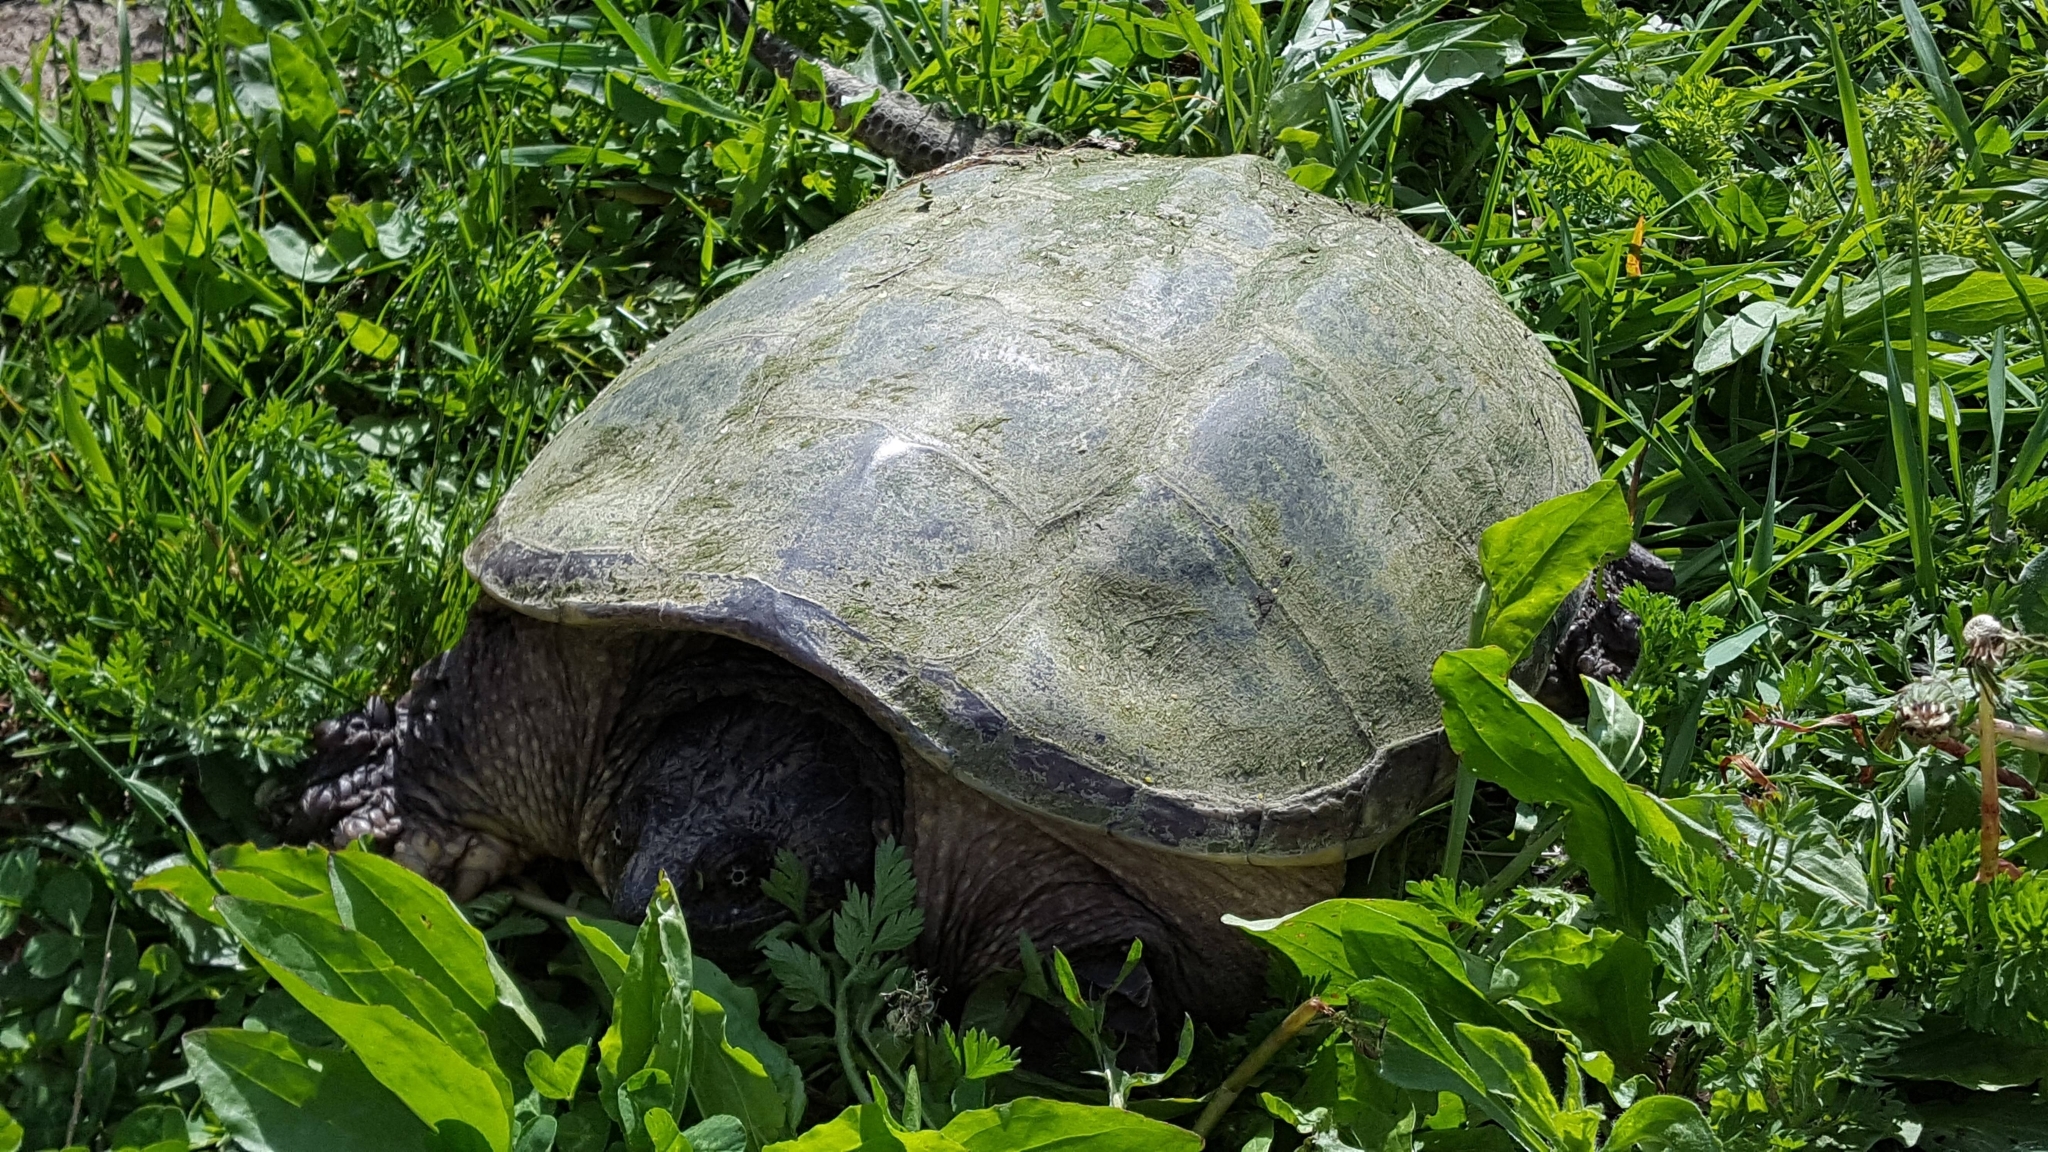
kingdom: Animalia
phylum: Chordata
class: Testudines
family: Chelydridae
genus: Chelydra
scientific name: Chelydra serpentina
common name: Common snapping turtle
